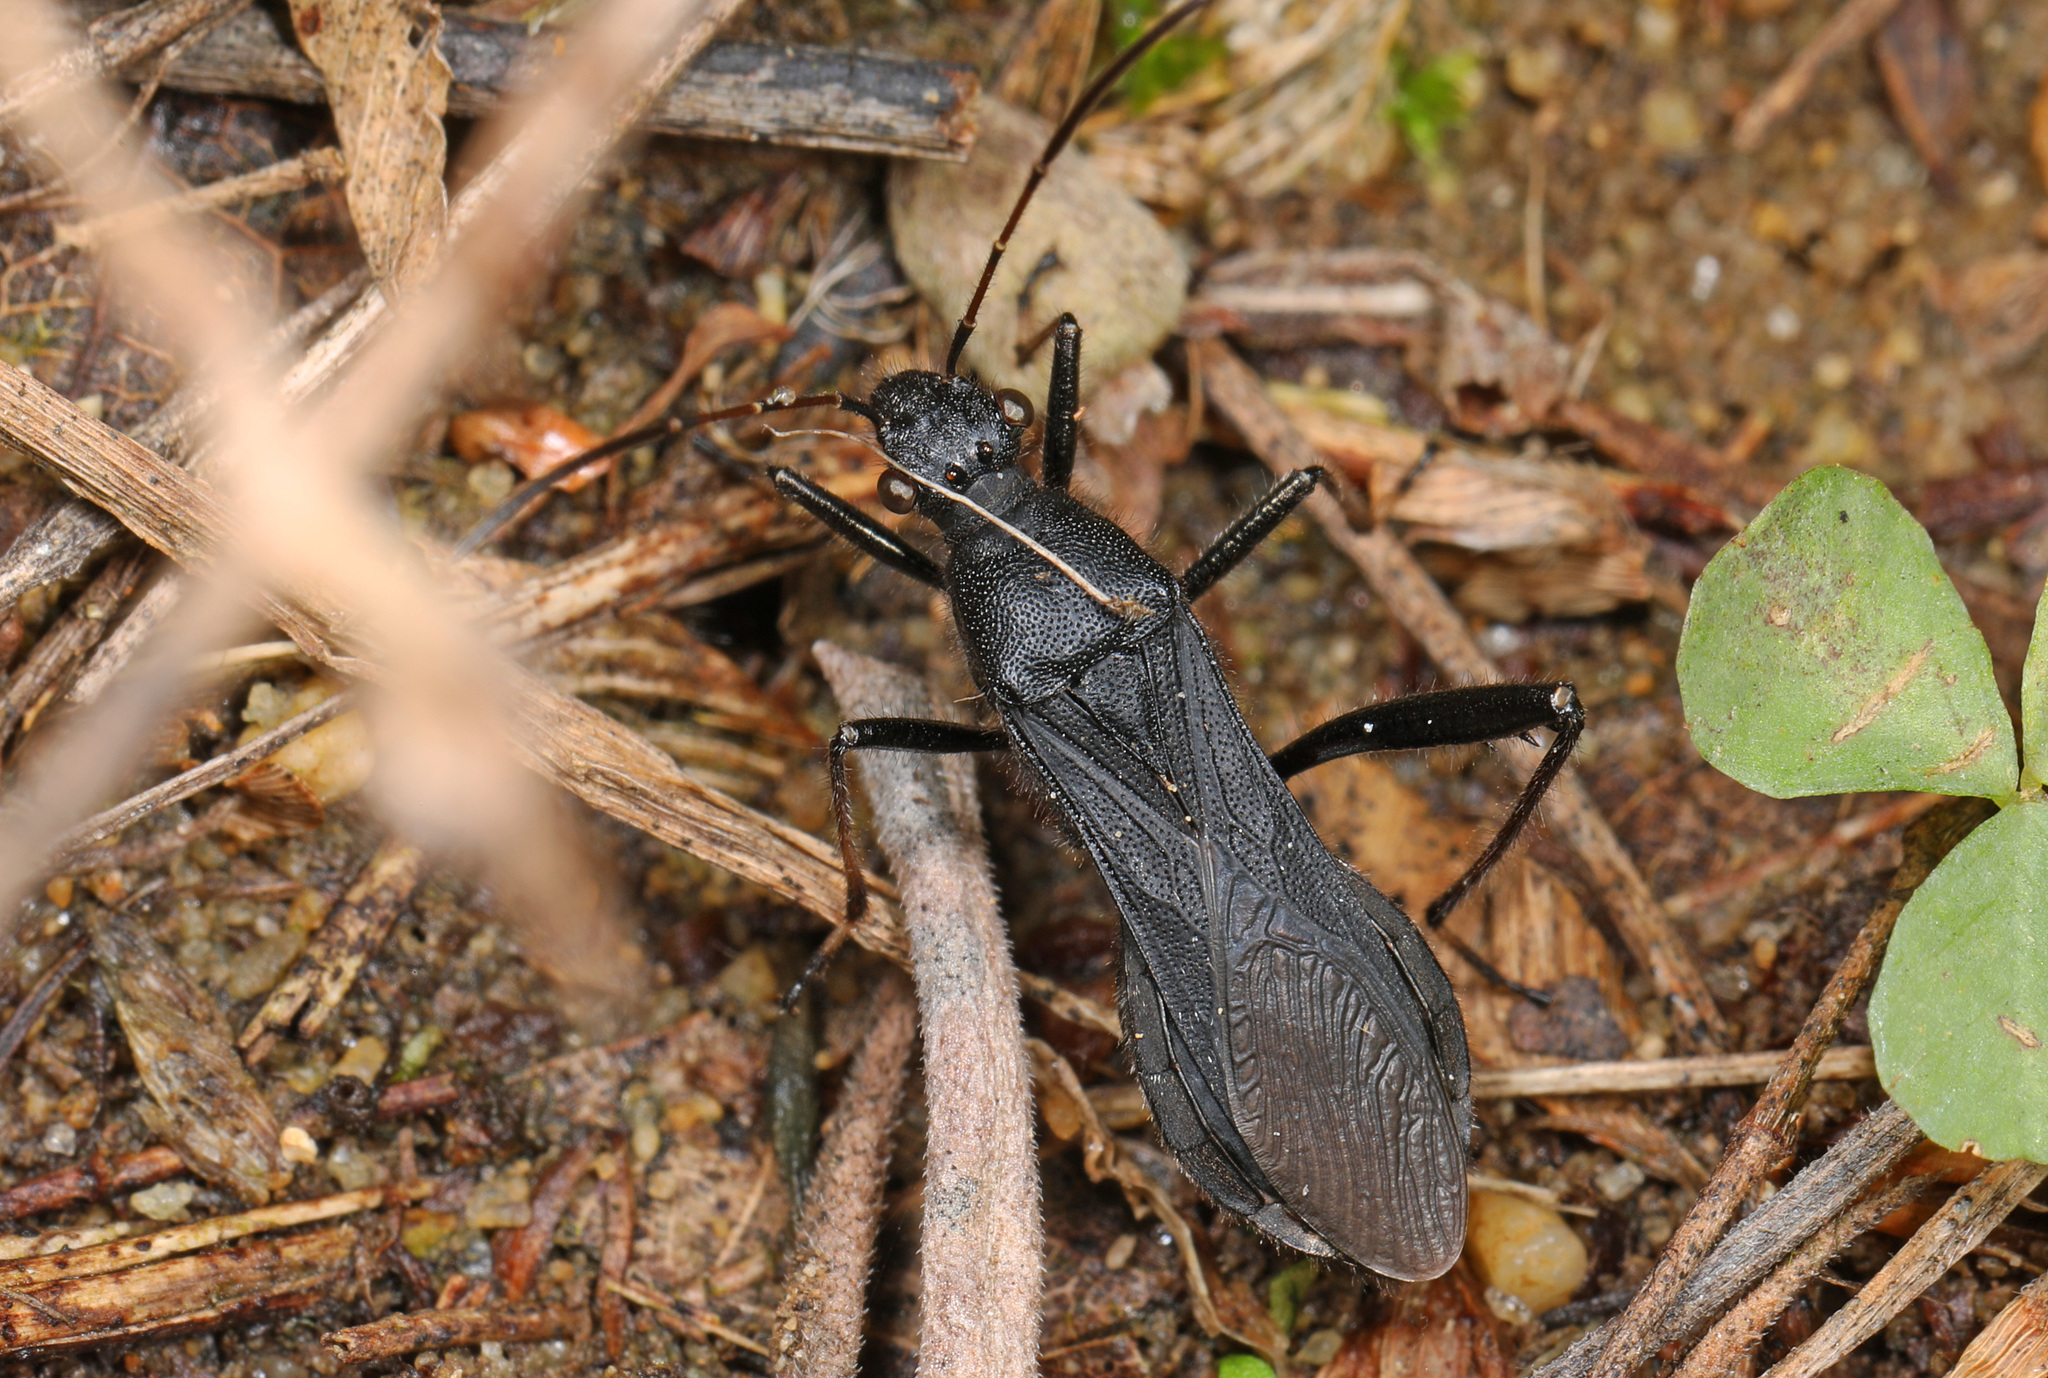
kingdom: Animalia
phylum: Arthropoda
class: Insecta
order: Hemiptera
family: Alydidae
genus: Alydus
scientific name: Alydus eurinus
